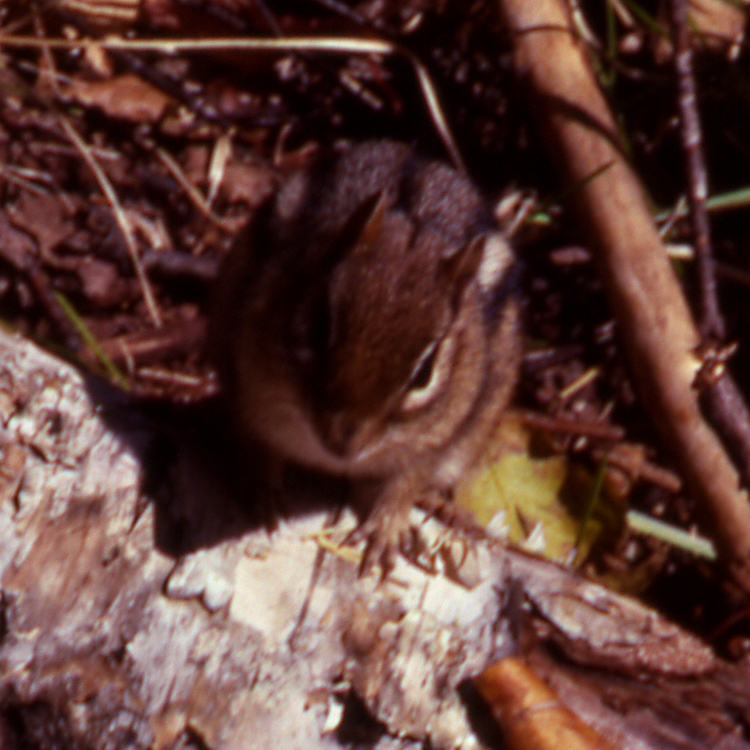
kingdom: Animalia
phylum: Chordata
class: Mammalia
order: Rodentia
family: Sciuridae
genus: Tamias
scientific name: Tamias striatus
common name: Eastern chipmunk
